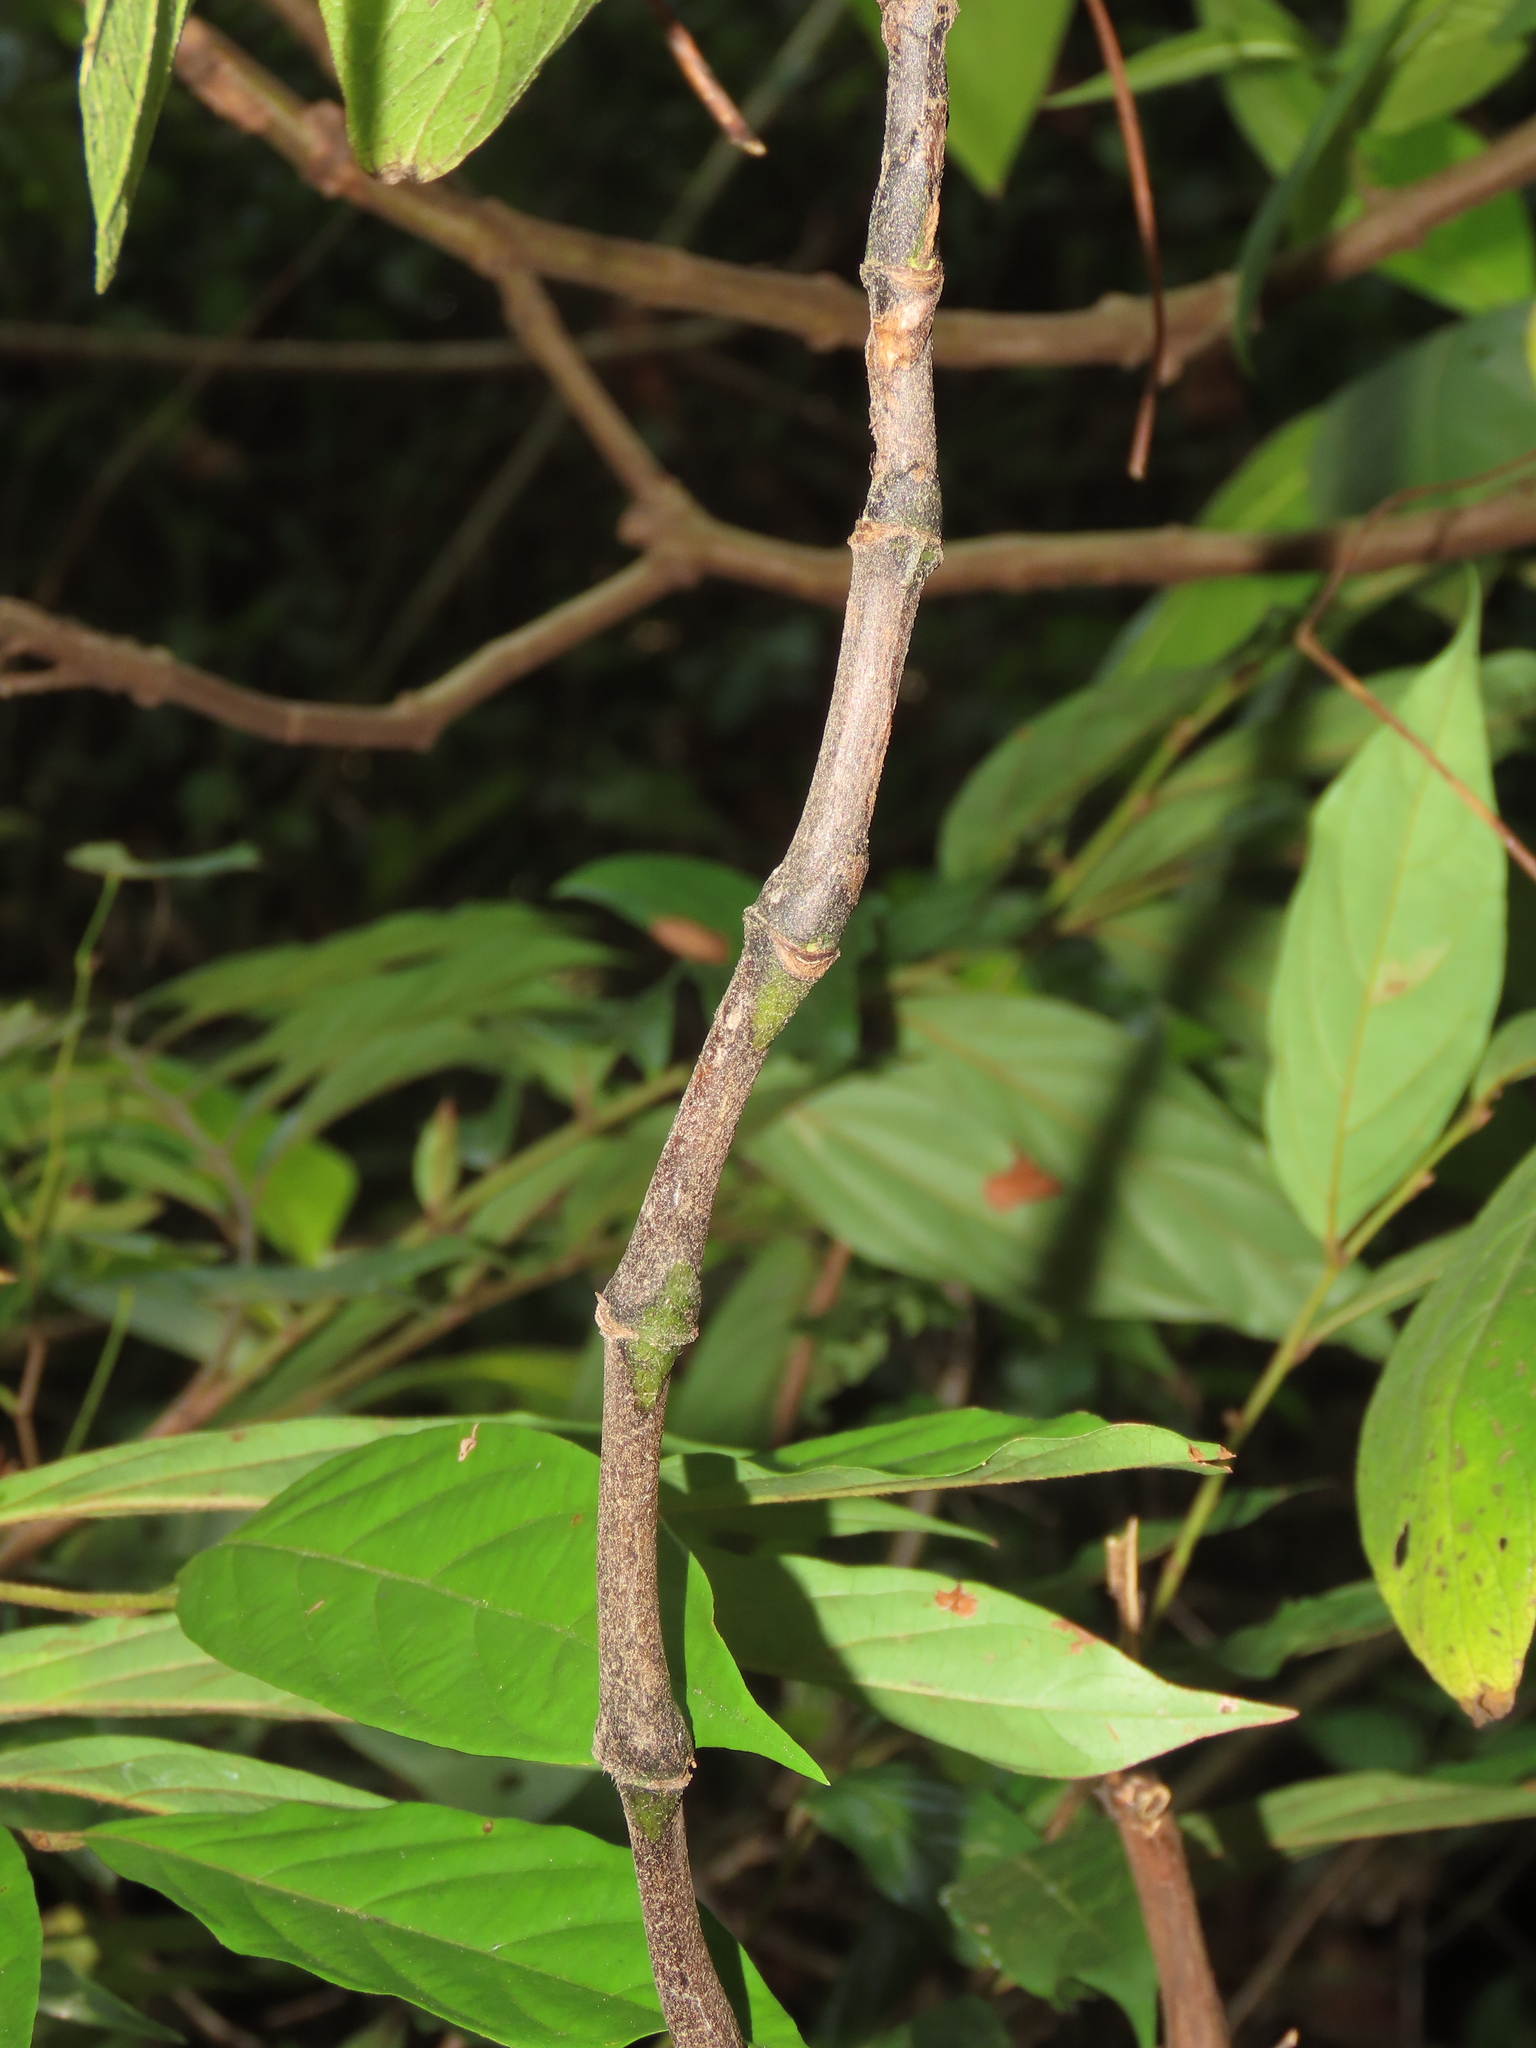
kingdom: Plantae
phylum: Tracheophyta
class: Magnoliopsida
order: Boraginales
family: Boraginaceae
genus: Trichodesma
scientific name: Trichodesma calycosum
